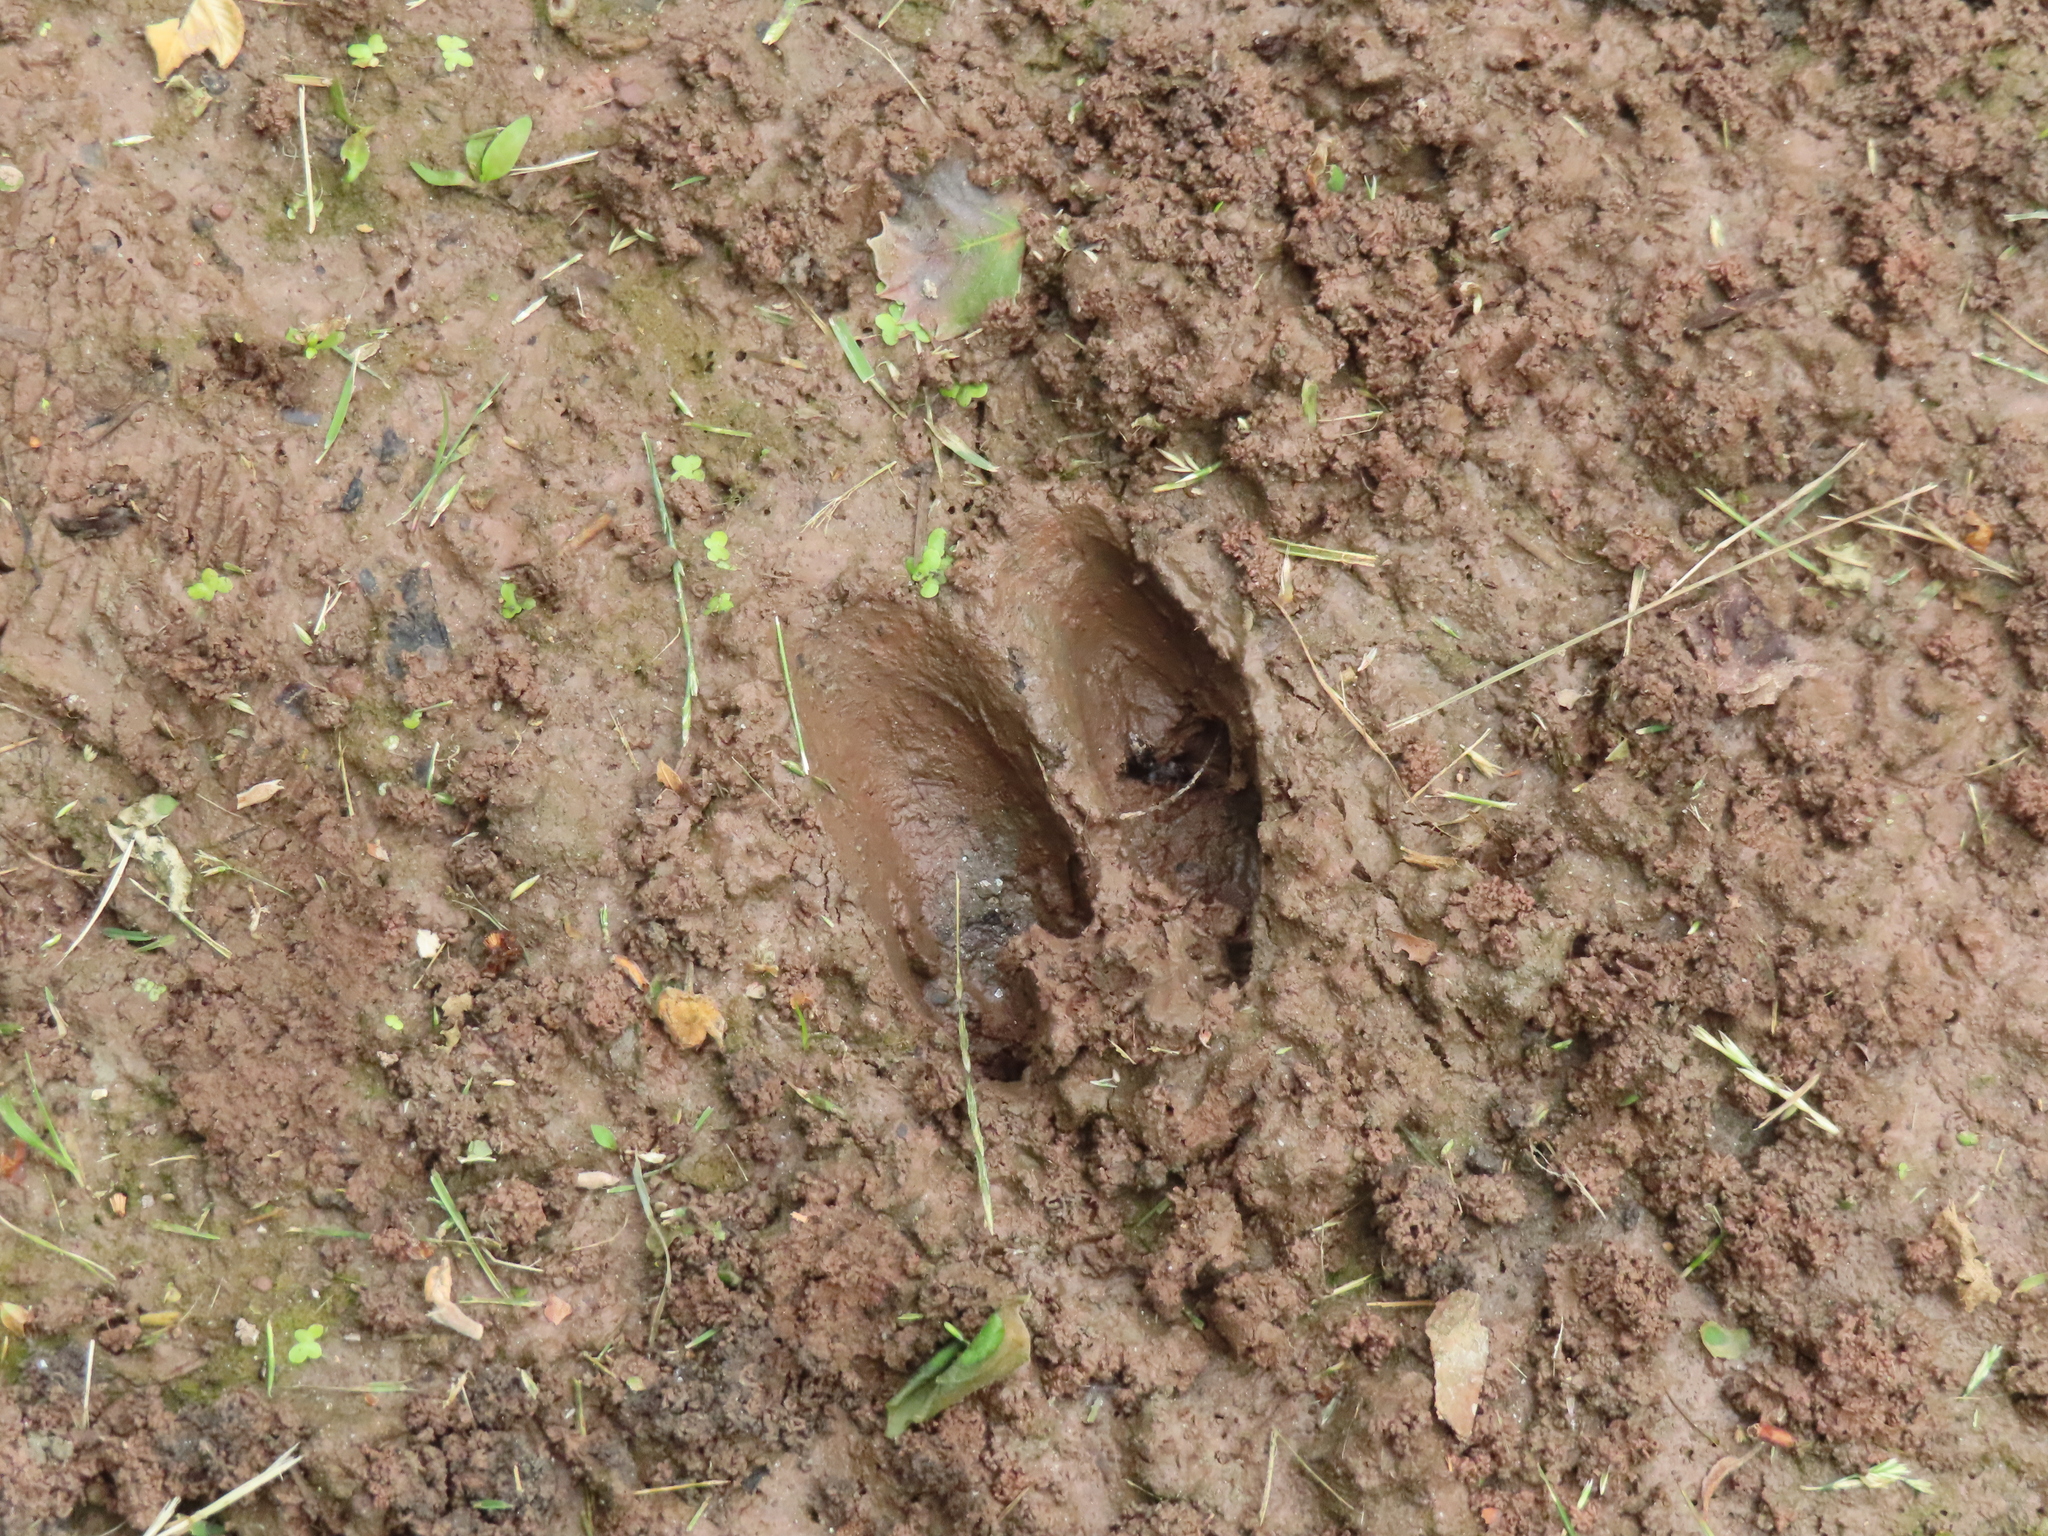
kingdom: Animalia
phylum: Chordata
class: Mammalia
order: Artiodactyla
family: Cervidae
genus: Odocoileus
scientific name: Odocoileus virginianus
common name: White-tailed deer
